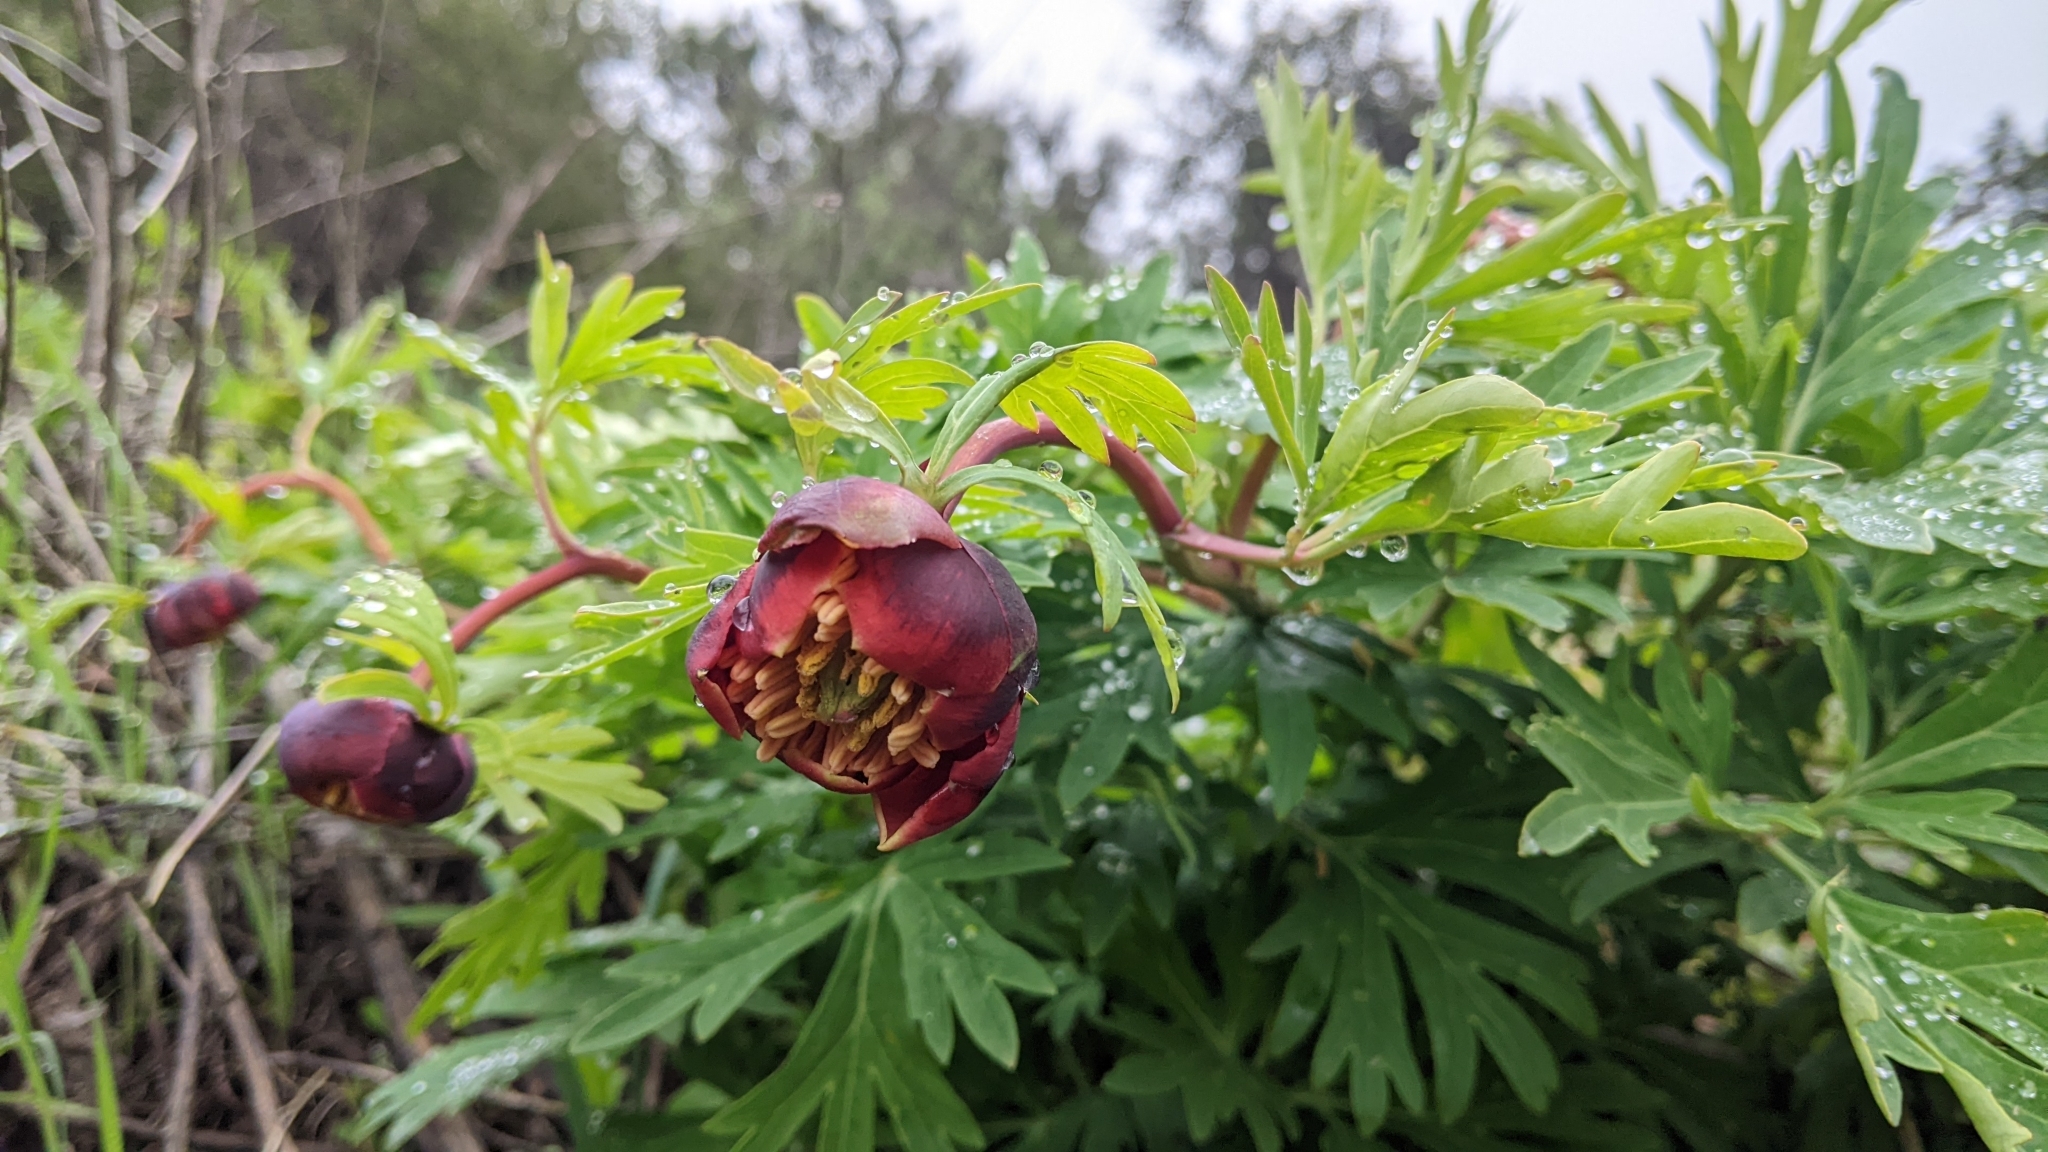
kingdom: Plantae
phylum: Tracheophyta
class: Magnoliopsida
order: Saxifragales
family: Paeoniaceae
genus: Paeonia
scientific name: Paeonia californica
